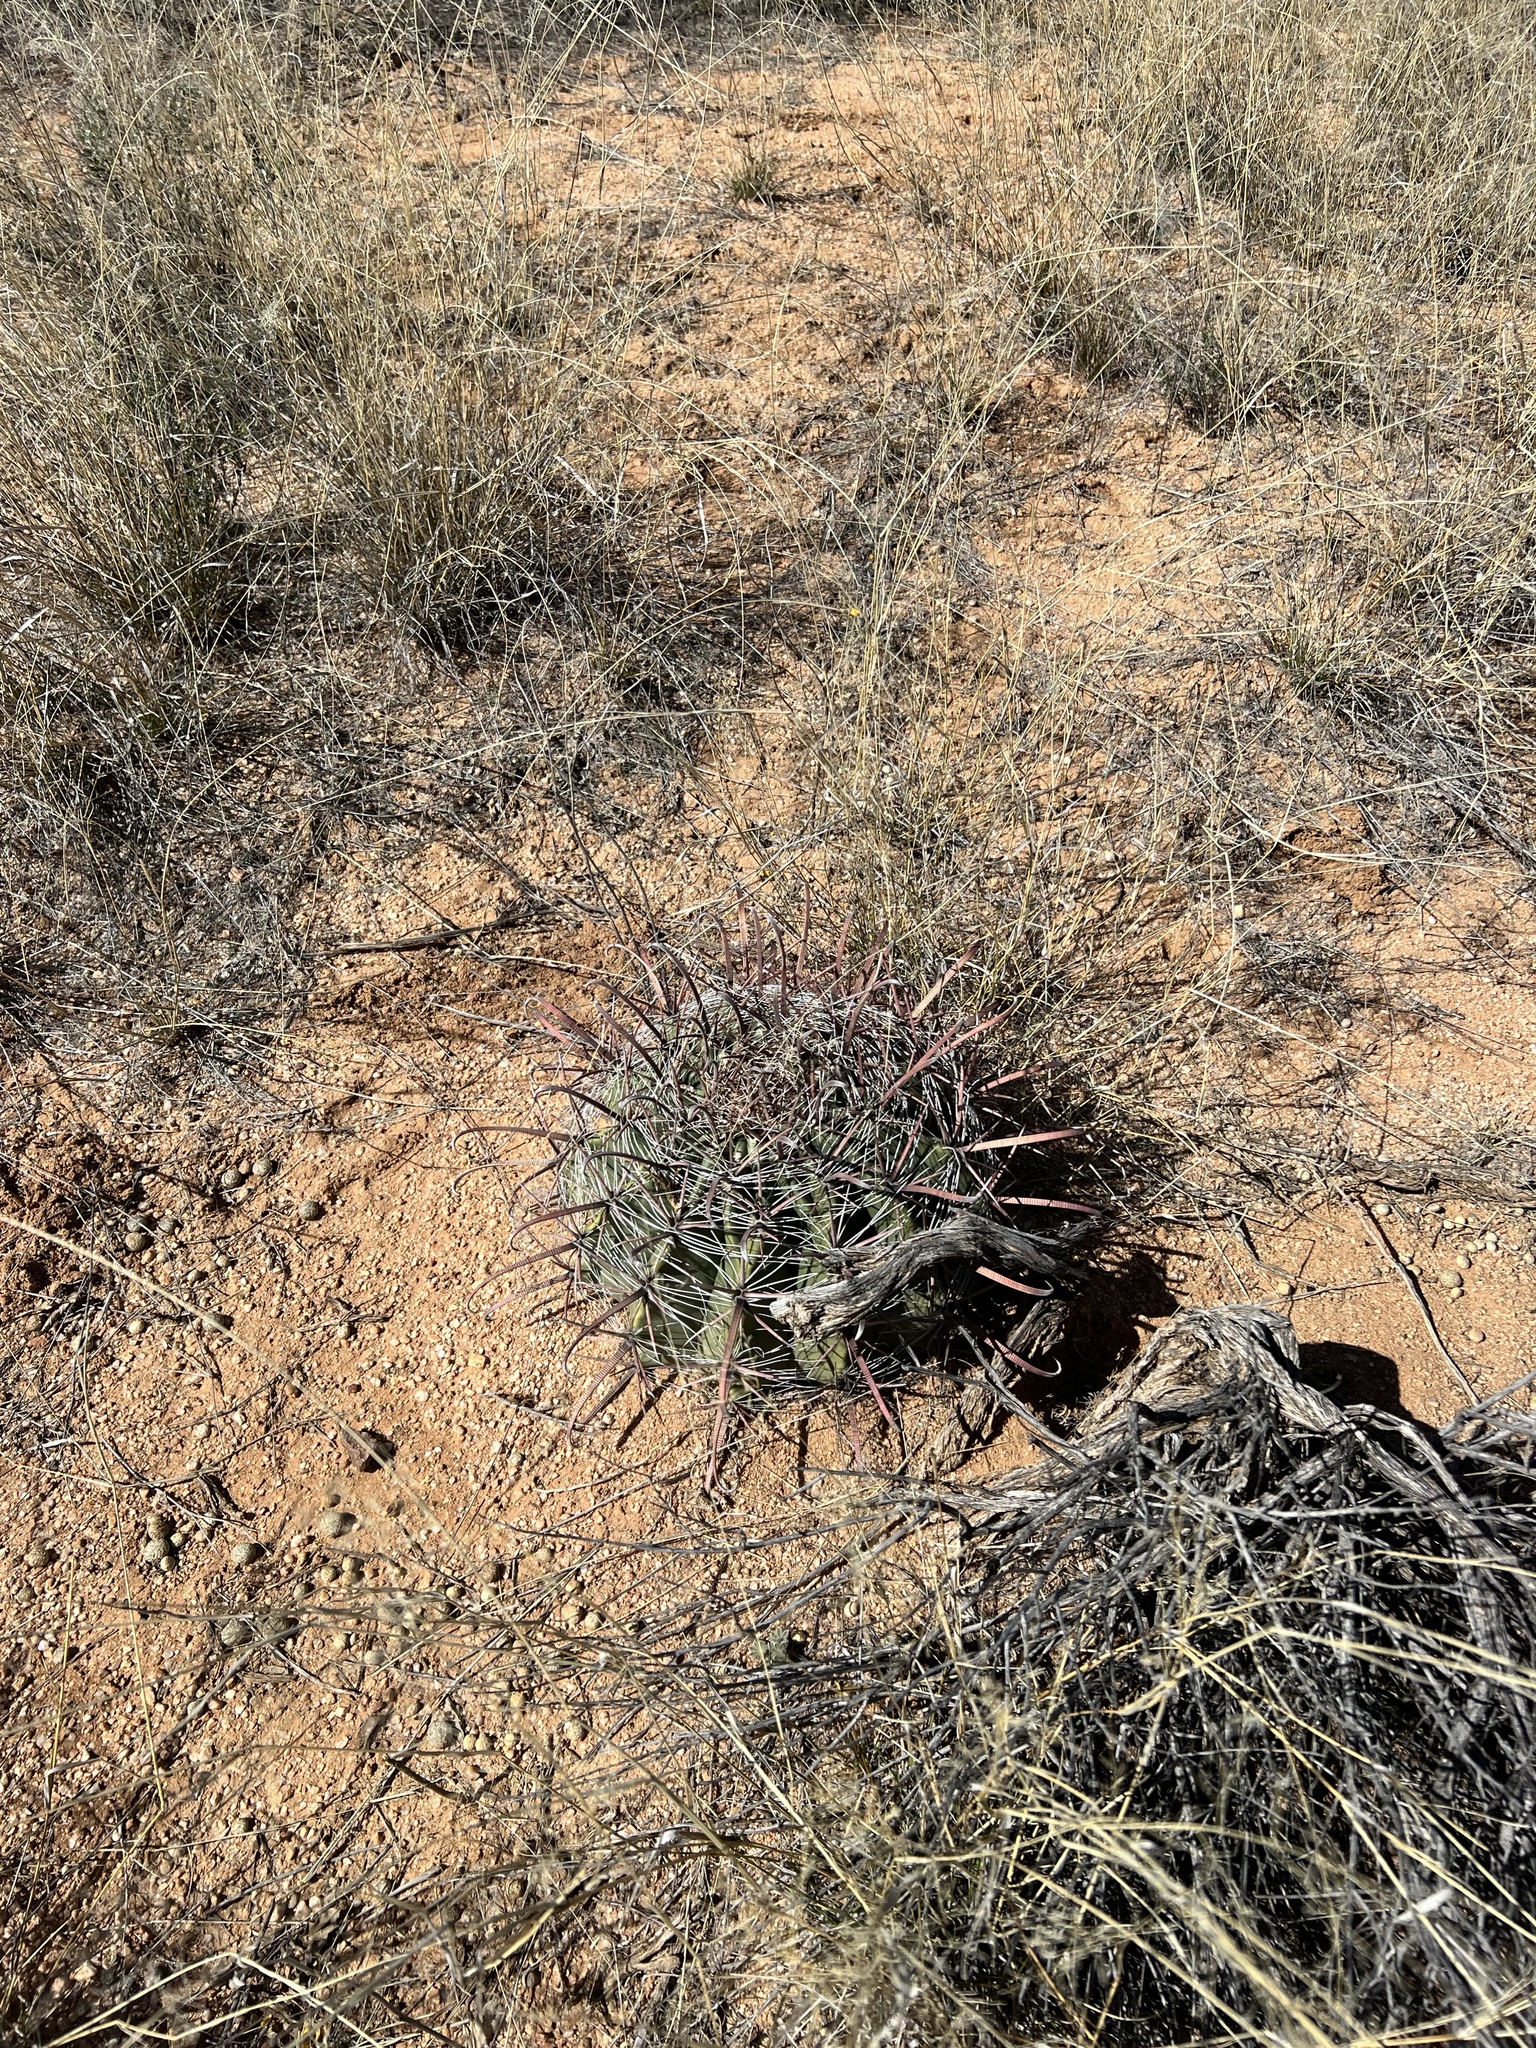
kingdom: Plantae
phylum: Tracheophyta
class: Magnoliopsida
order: Caryophyllales
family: Cactaceae
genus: Ferocactus
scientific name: Ferocactus wislizeni
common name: Candy barrel cactus
